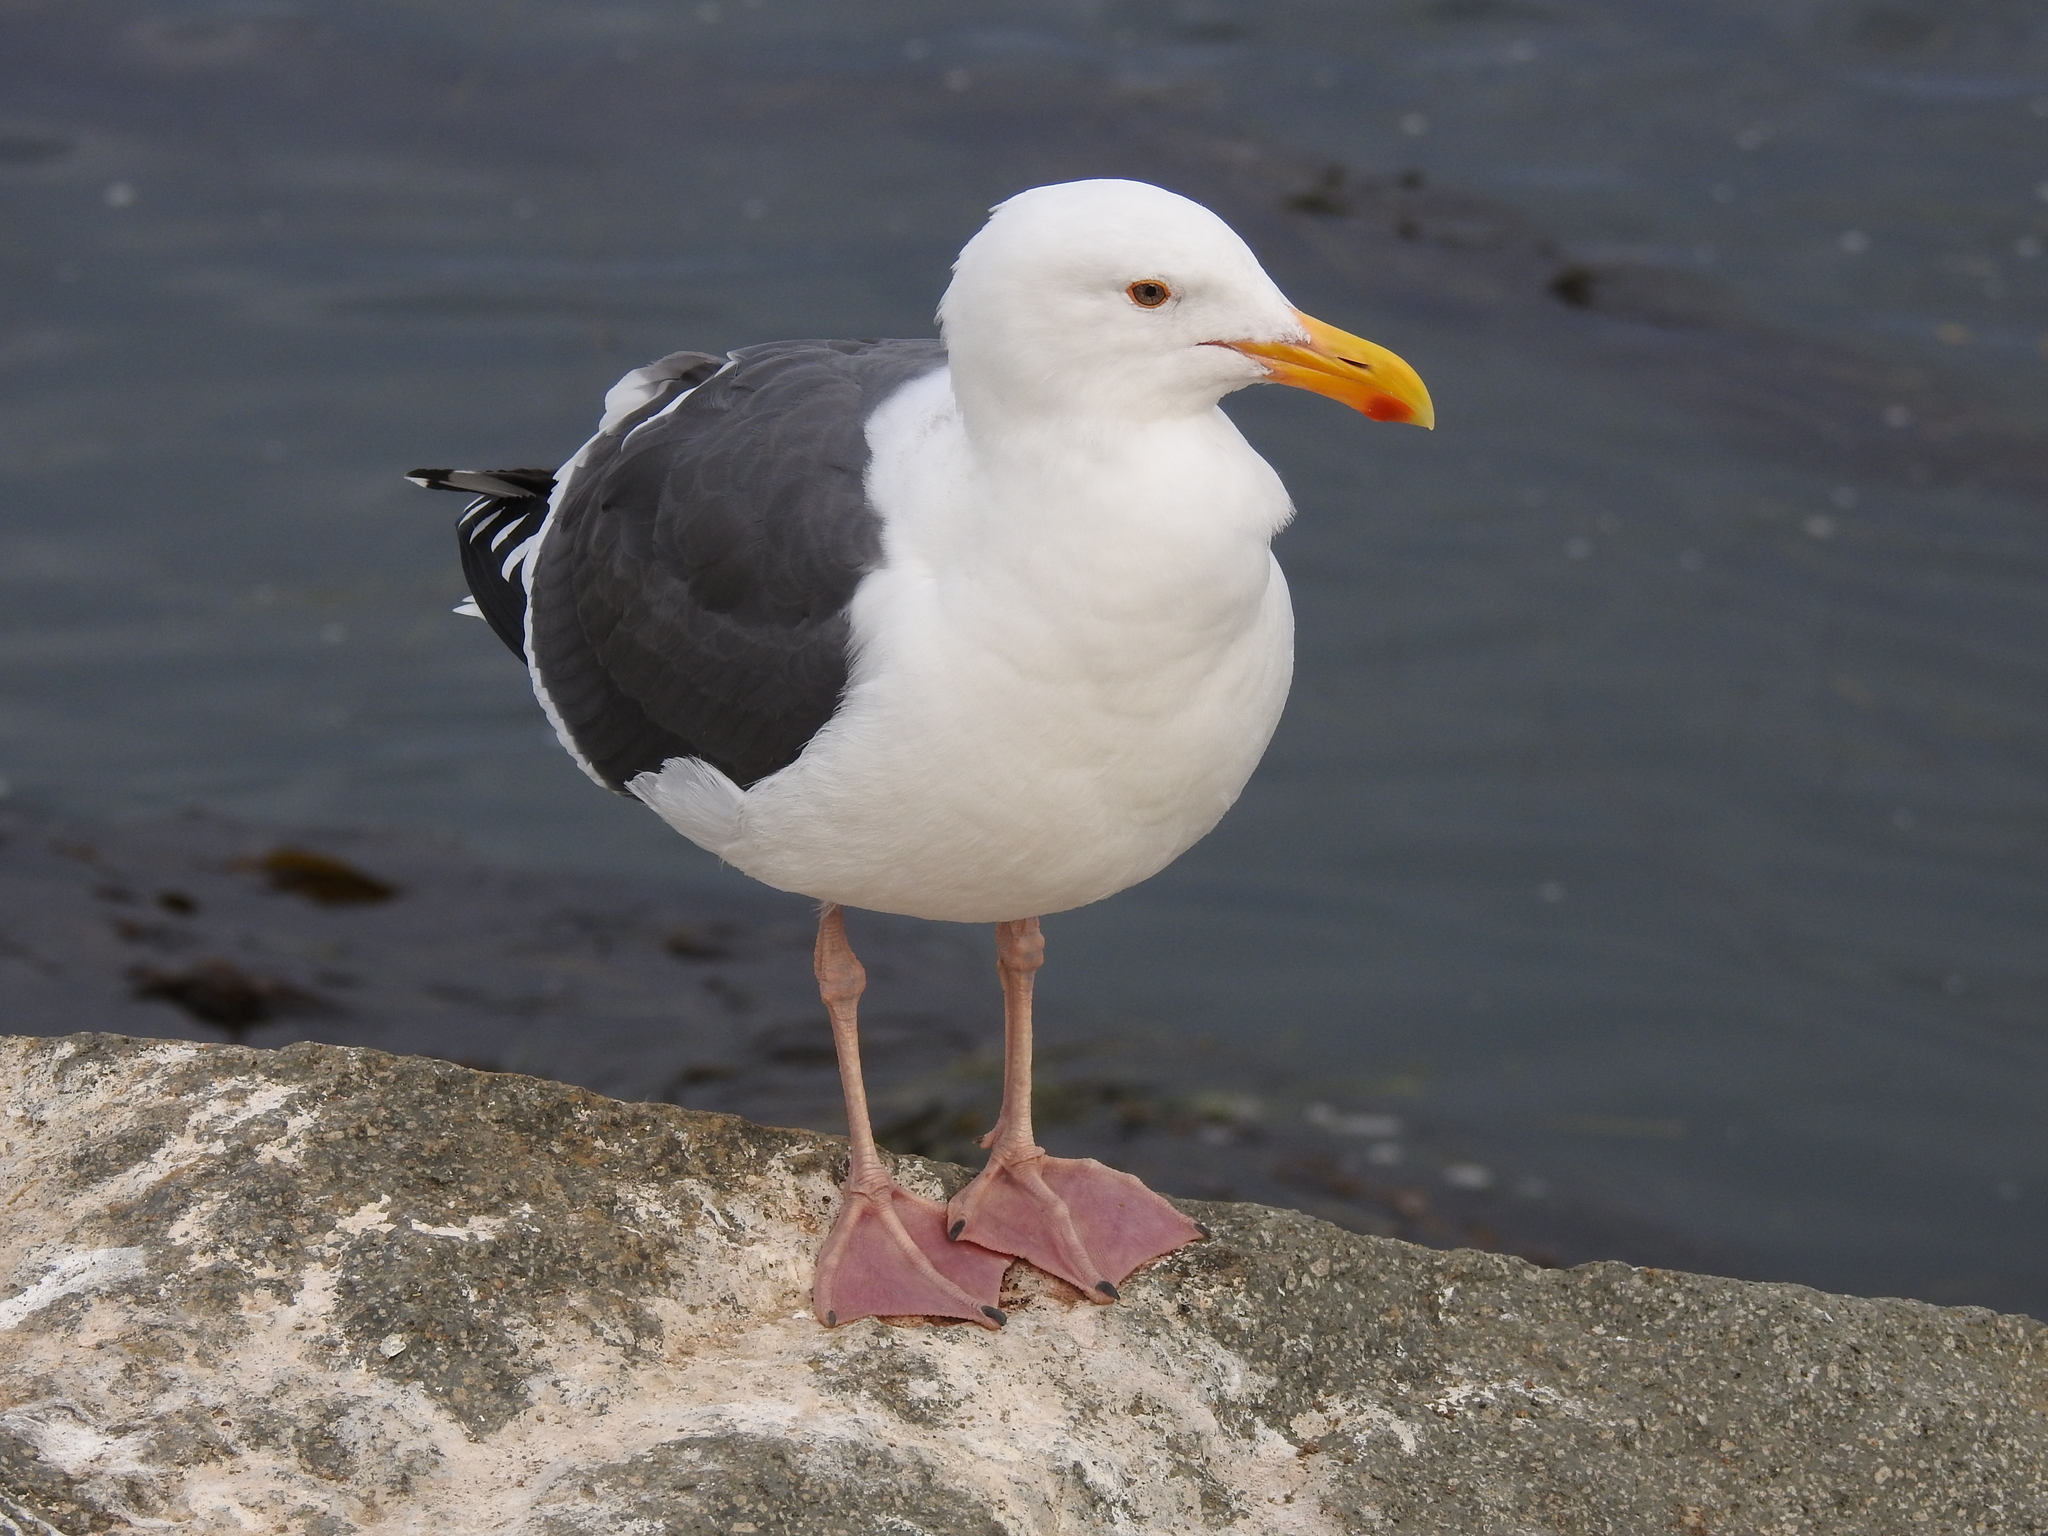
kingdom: Animalia
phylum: Chordata
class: Aves
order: Charadriiformes
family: Laridae
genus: Larus
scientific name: Larus occidentalis
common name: Western gull
